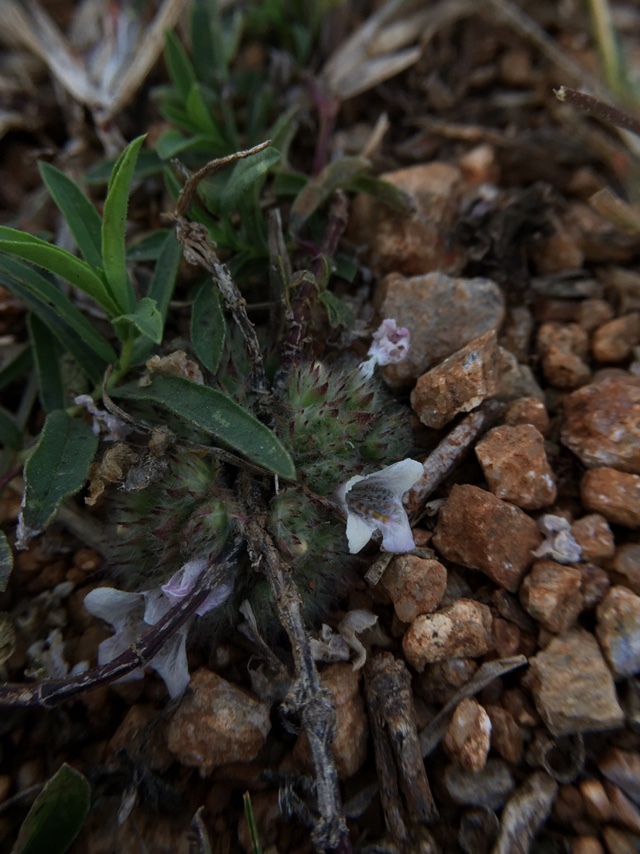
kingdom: Plantae
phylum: Tracheophyta
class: Magnoliopsida
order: Lamiales
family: Acanthaceae
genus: Lepidagathis
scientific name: Lepidagathis cristata
